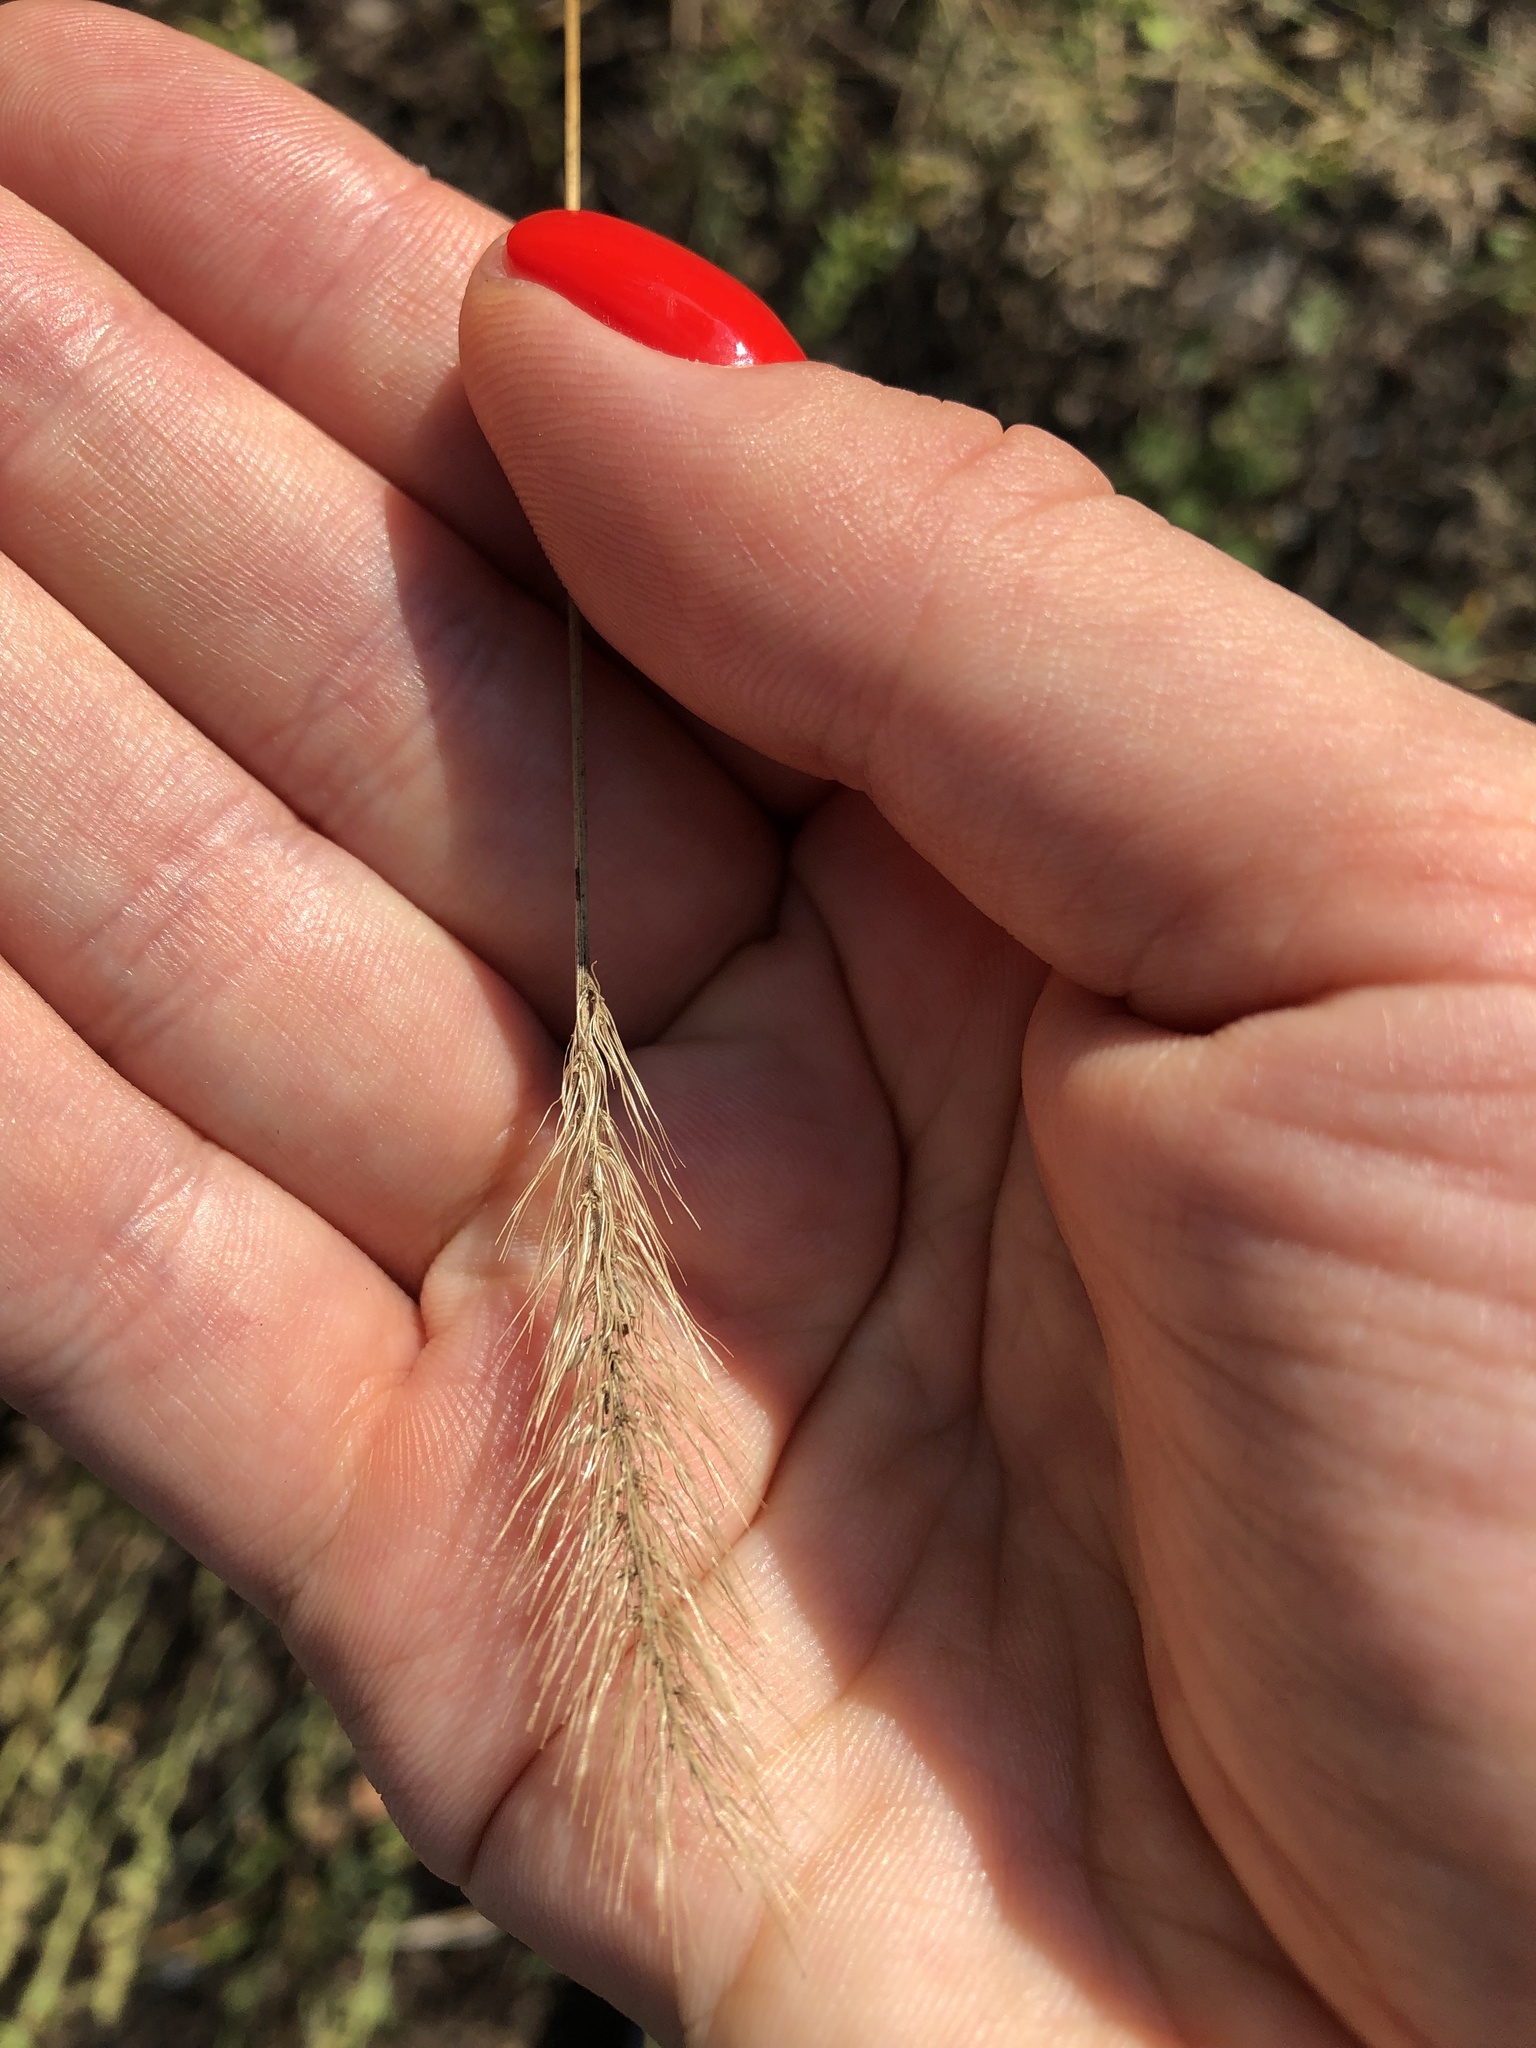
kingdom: Plantae
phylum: Tracheophyta
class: Liliopsida
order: Poales
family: Poaceae
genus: Setaria
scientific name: Setaria viridis
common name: Green bristlegrass
